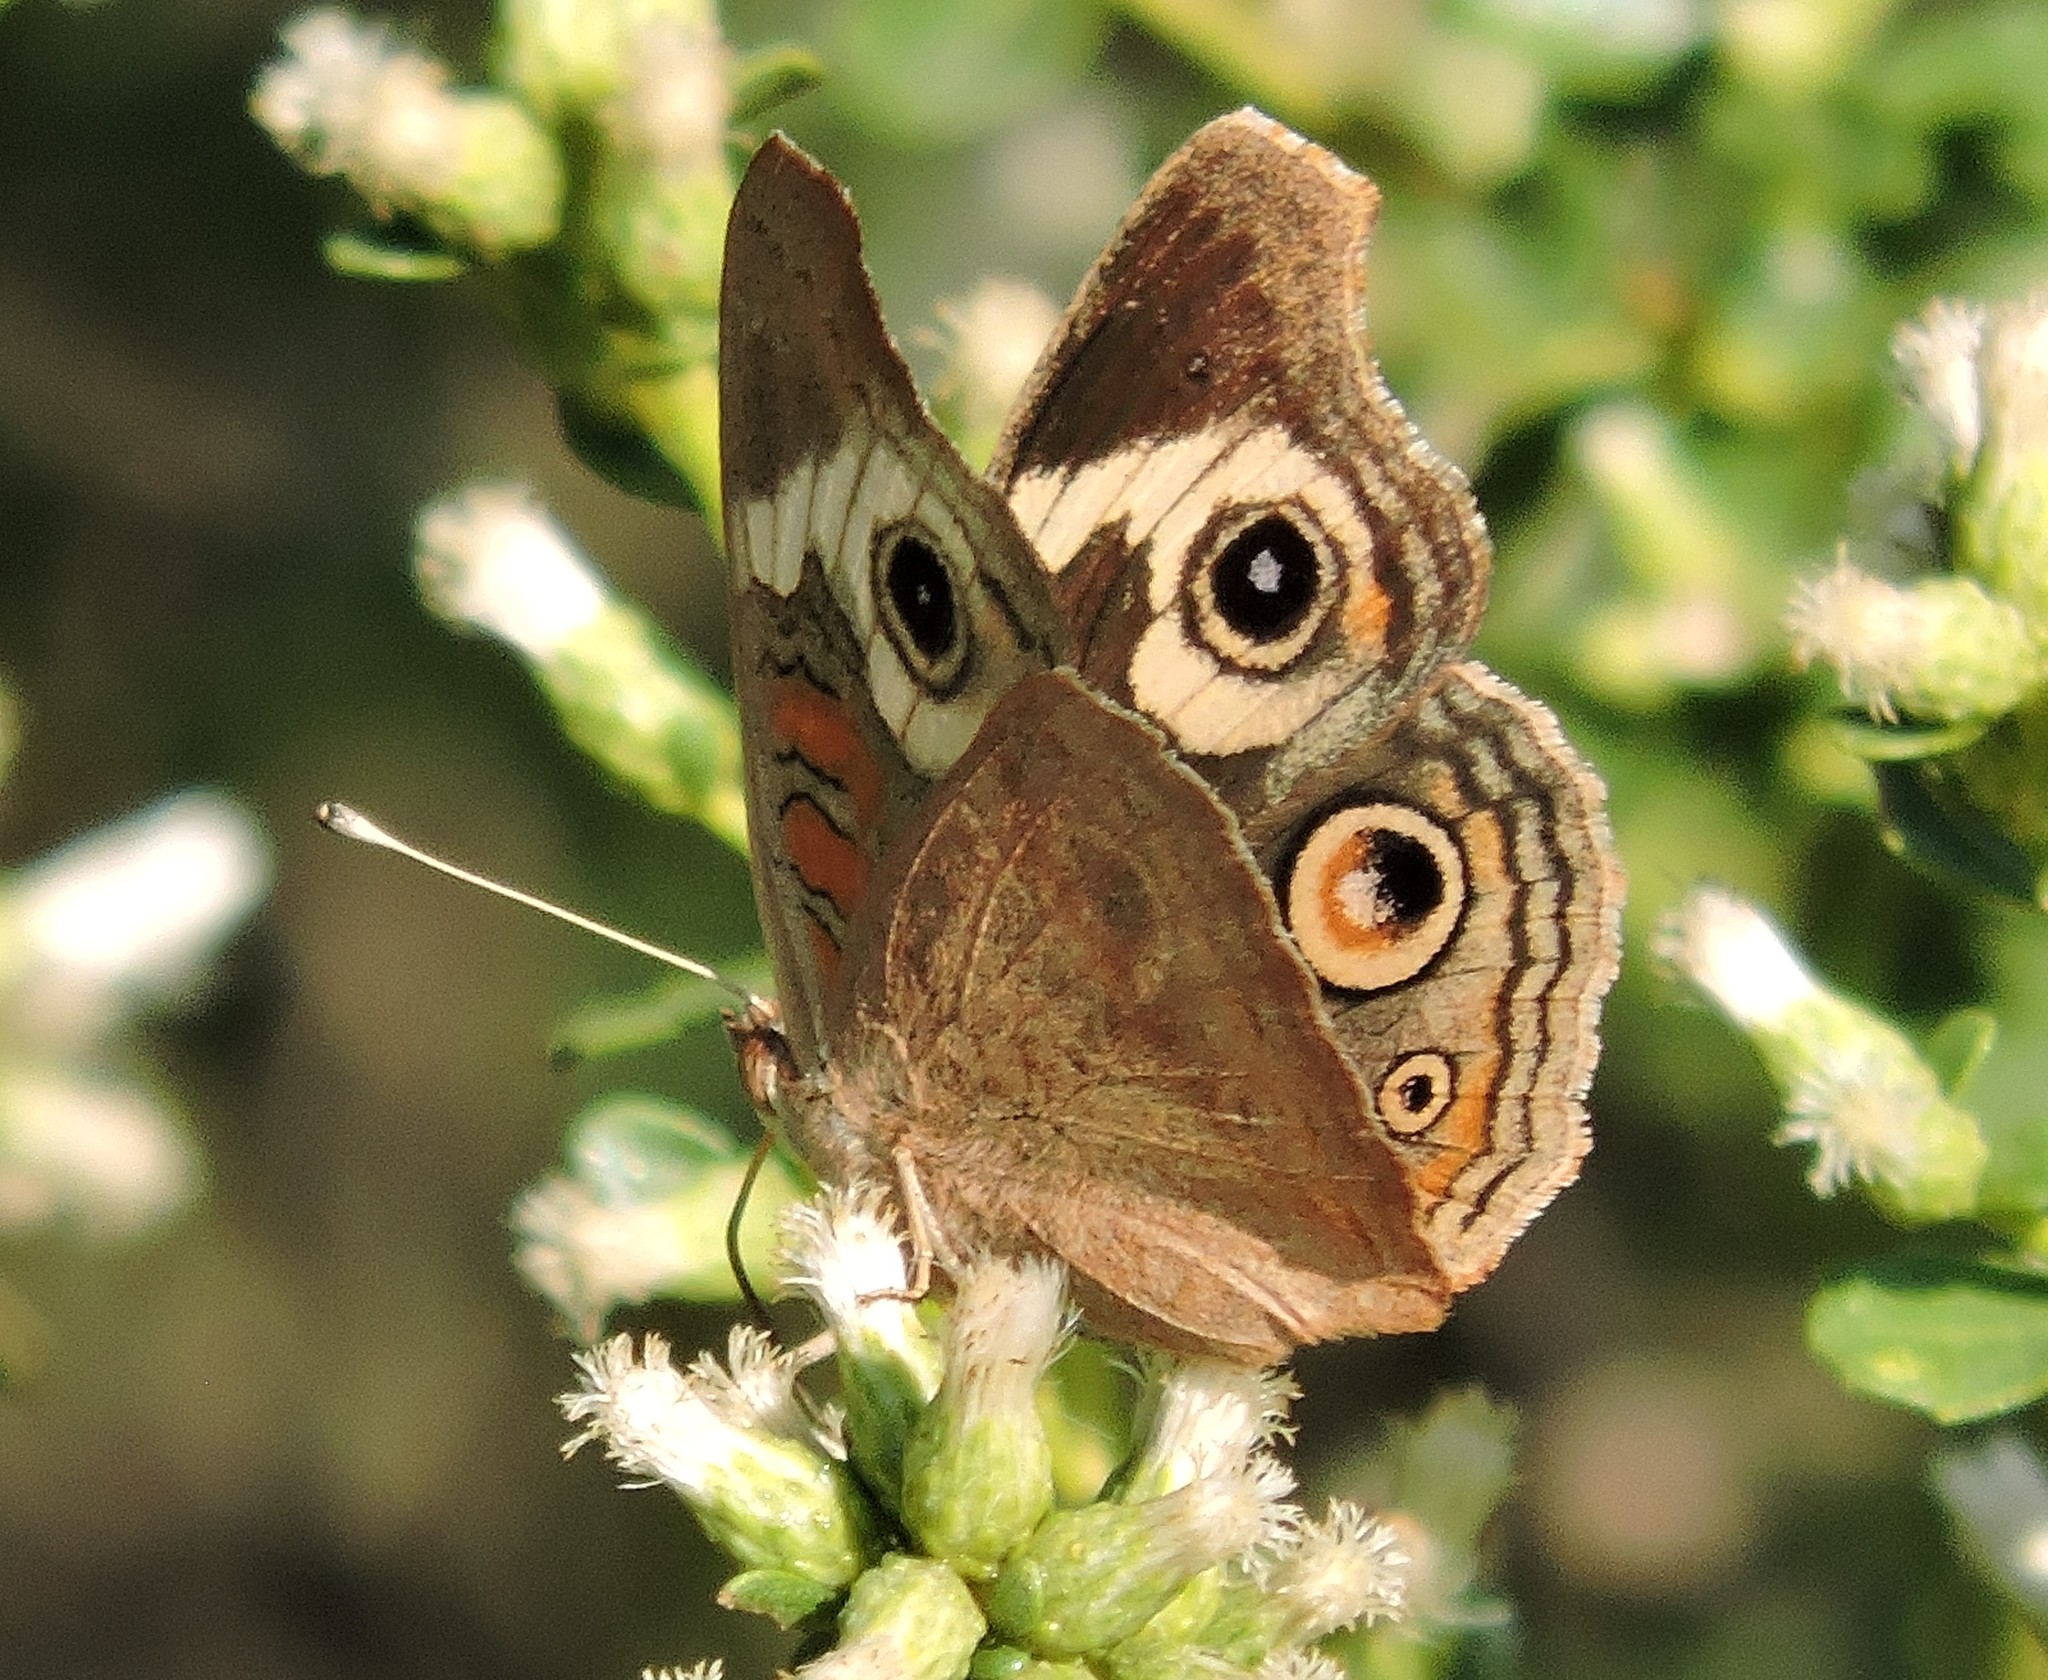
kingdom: Animalia
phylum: Arthropoda
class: Insecta
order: Lepidoptera
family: Nymphalidae
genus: Junonia
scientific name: Junonia grisea
